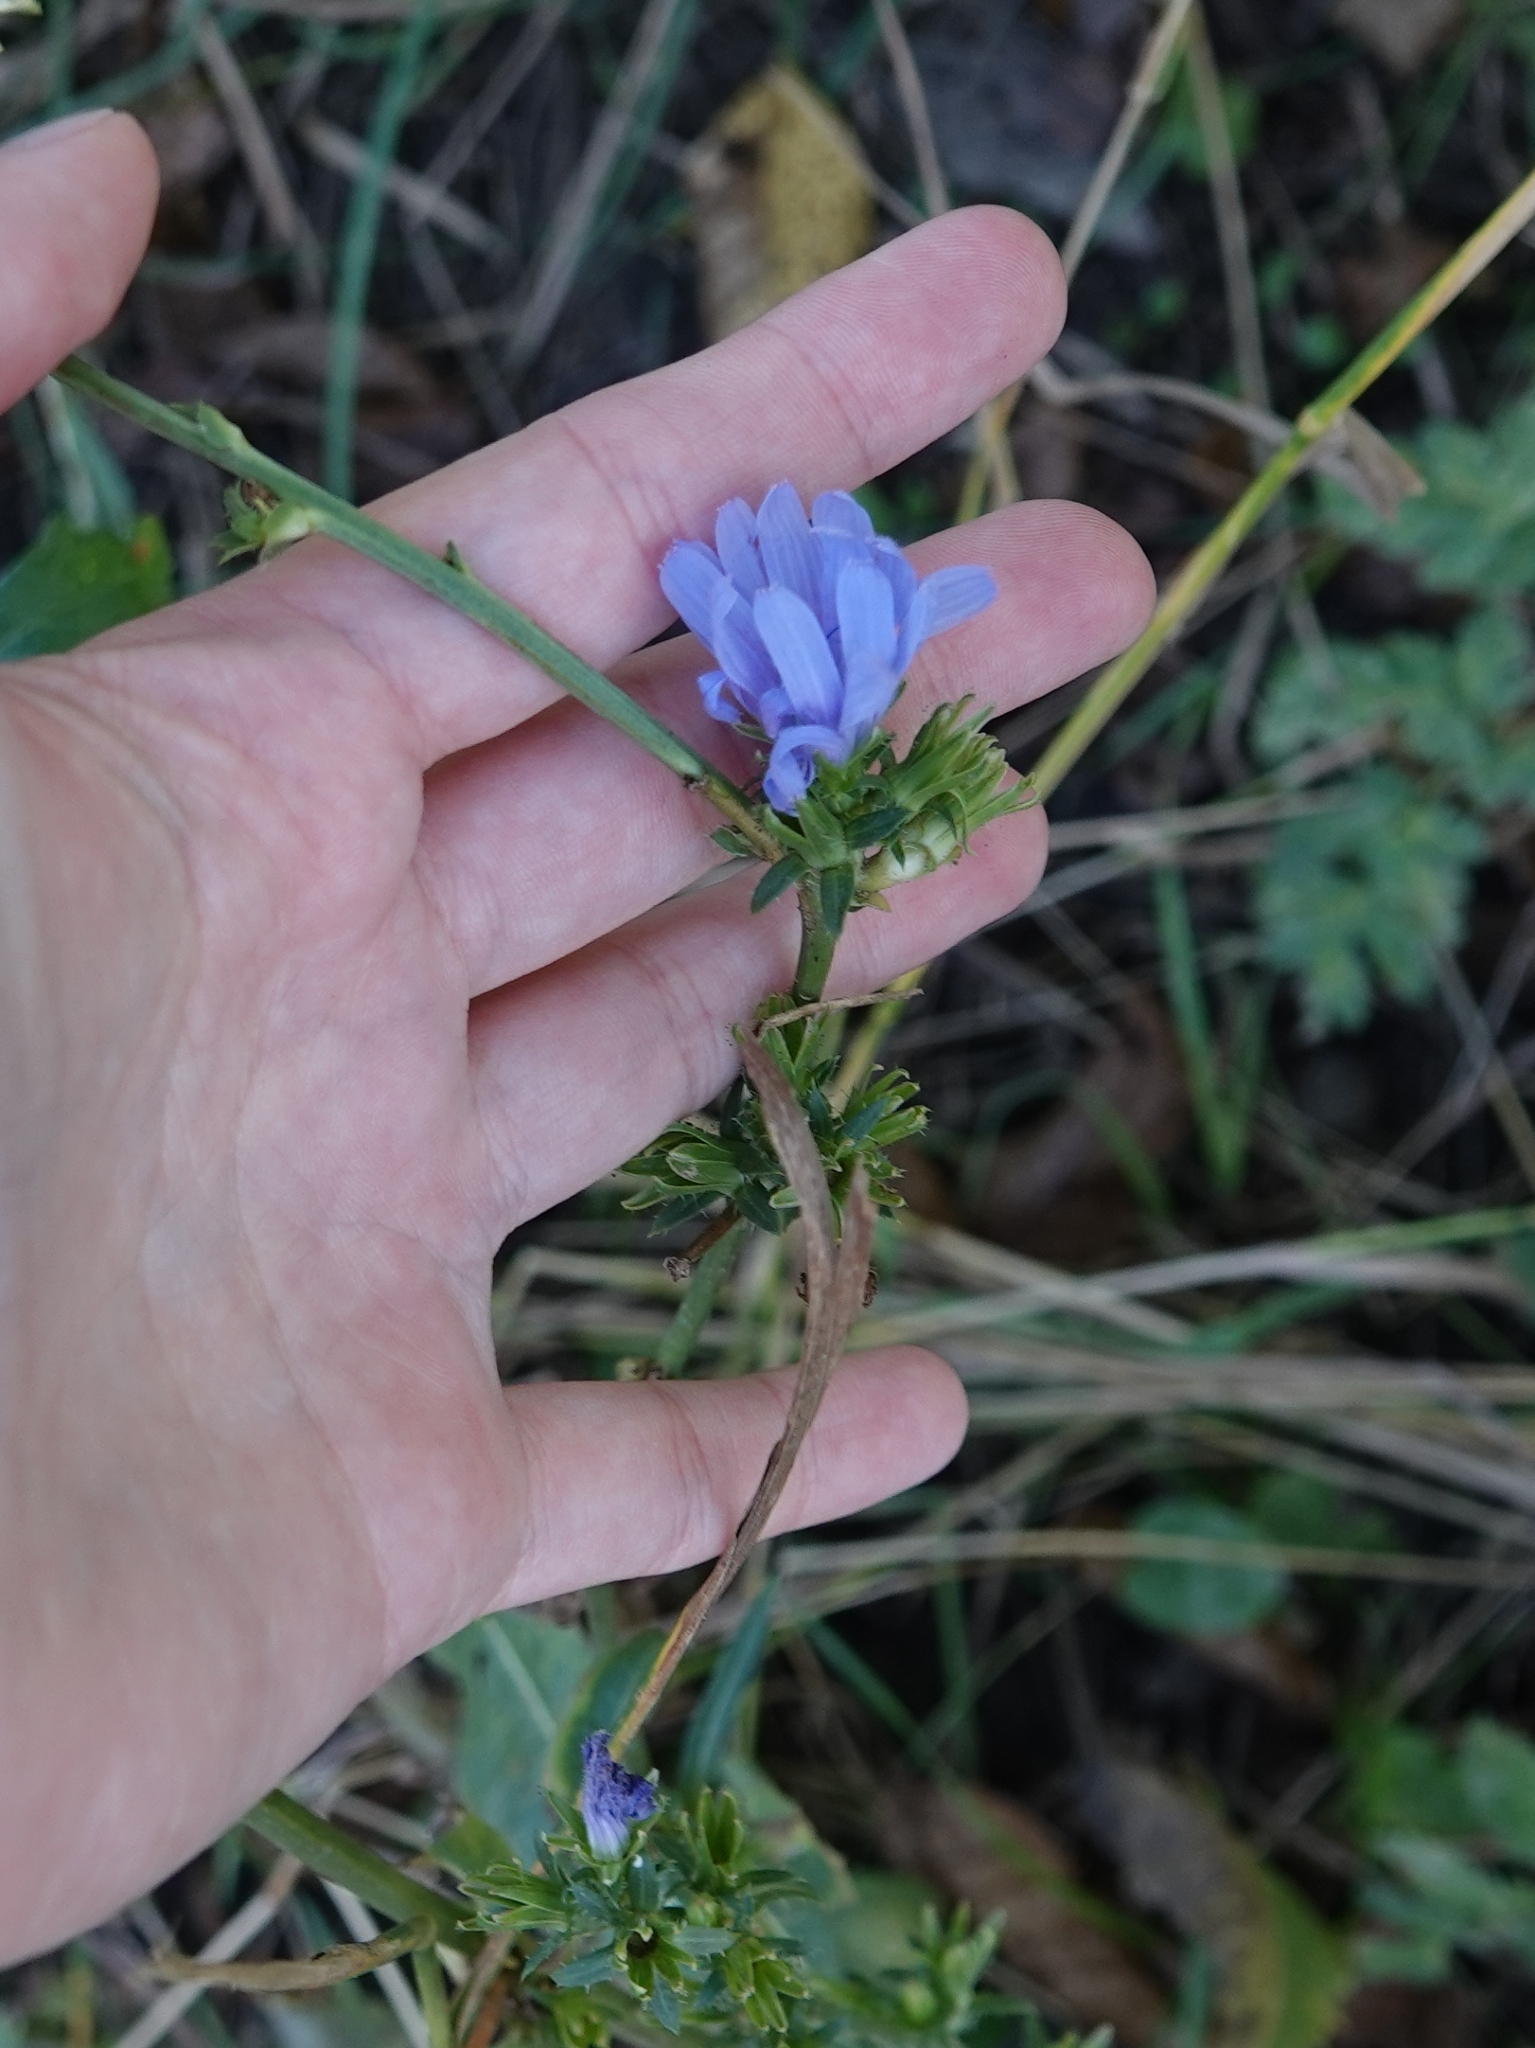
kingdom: Plantae
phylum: Tracheophyta
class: Magnoliopsida
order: Asterales
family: Asteraceae
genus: Cichorium
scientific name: Cichorium intybus
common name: Chicory
